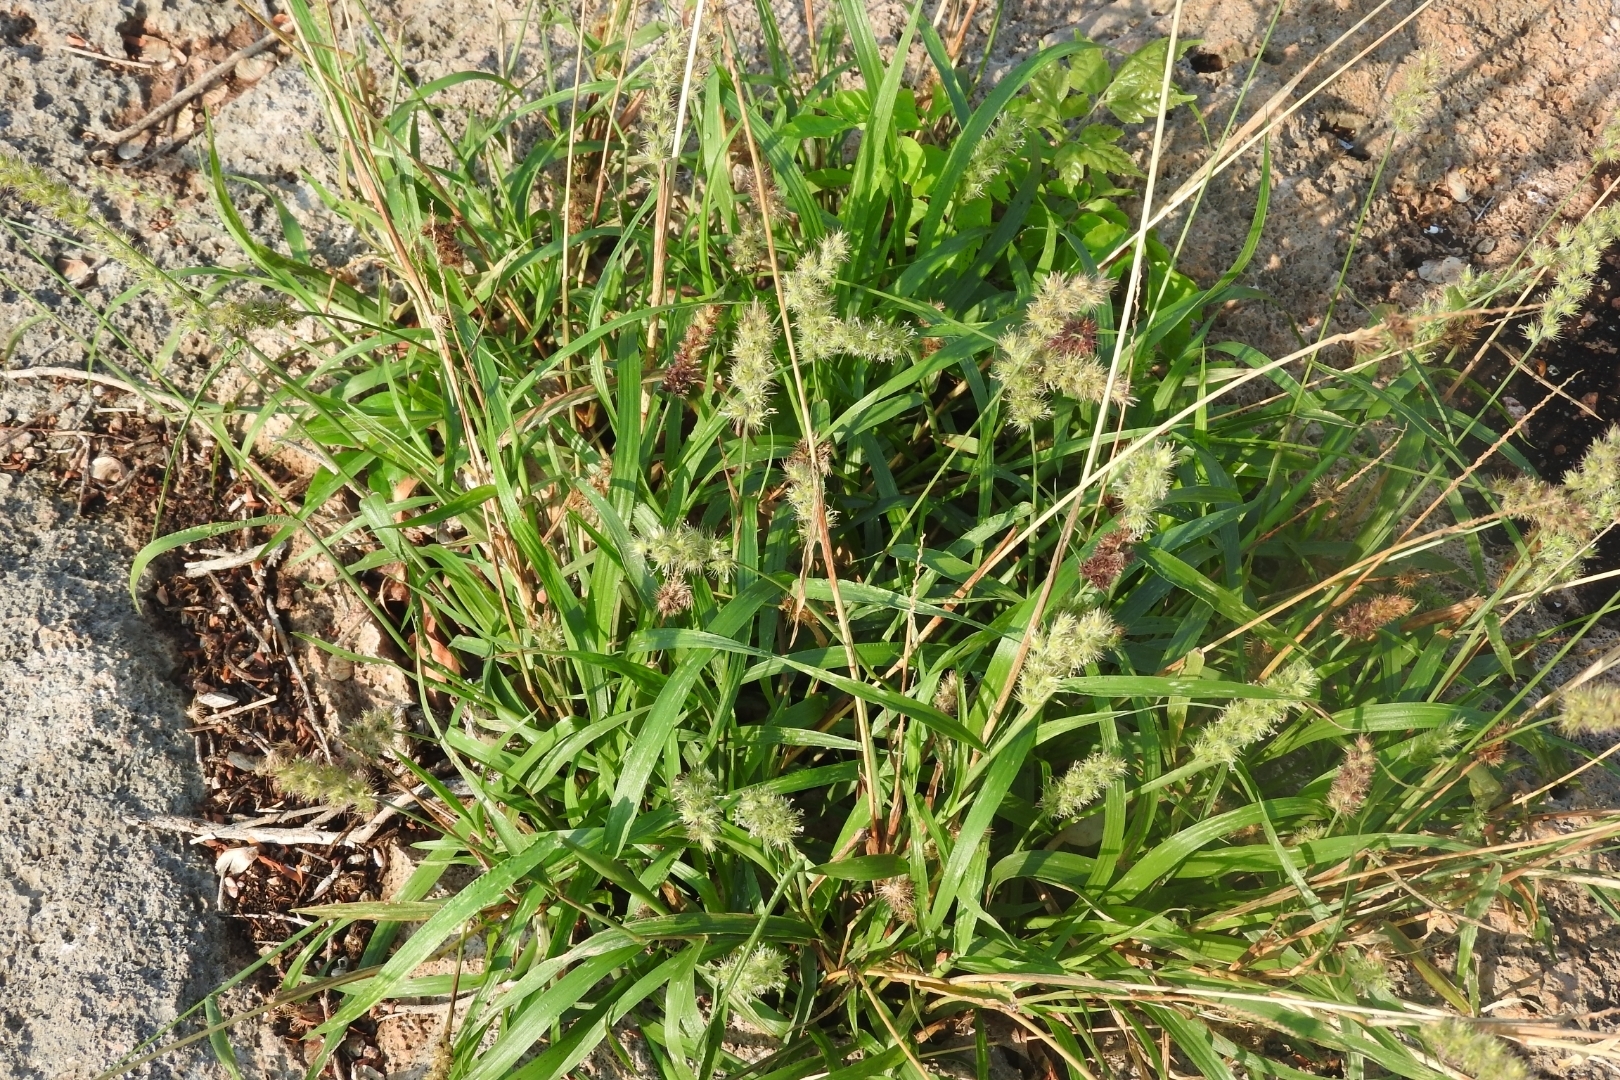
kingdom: Plantae
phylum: Tracheophyta
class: Liliopsida
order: Poales
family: Poaceae
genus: Cenchrus
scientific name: Cenchrus echinatus
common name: Southern sandbur
